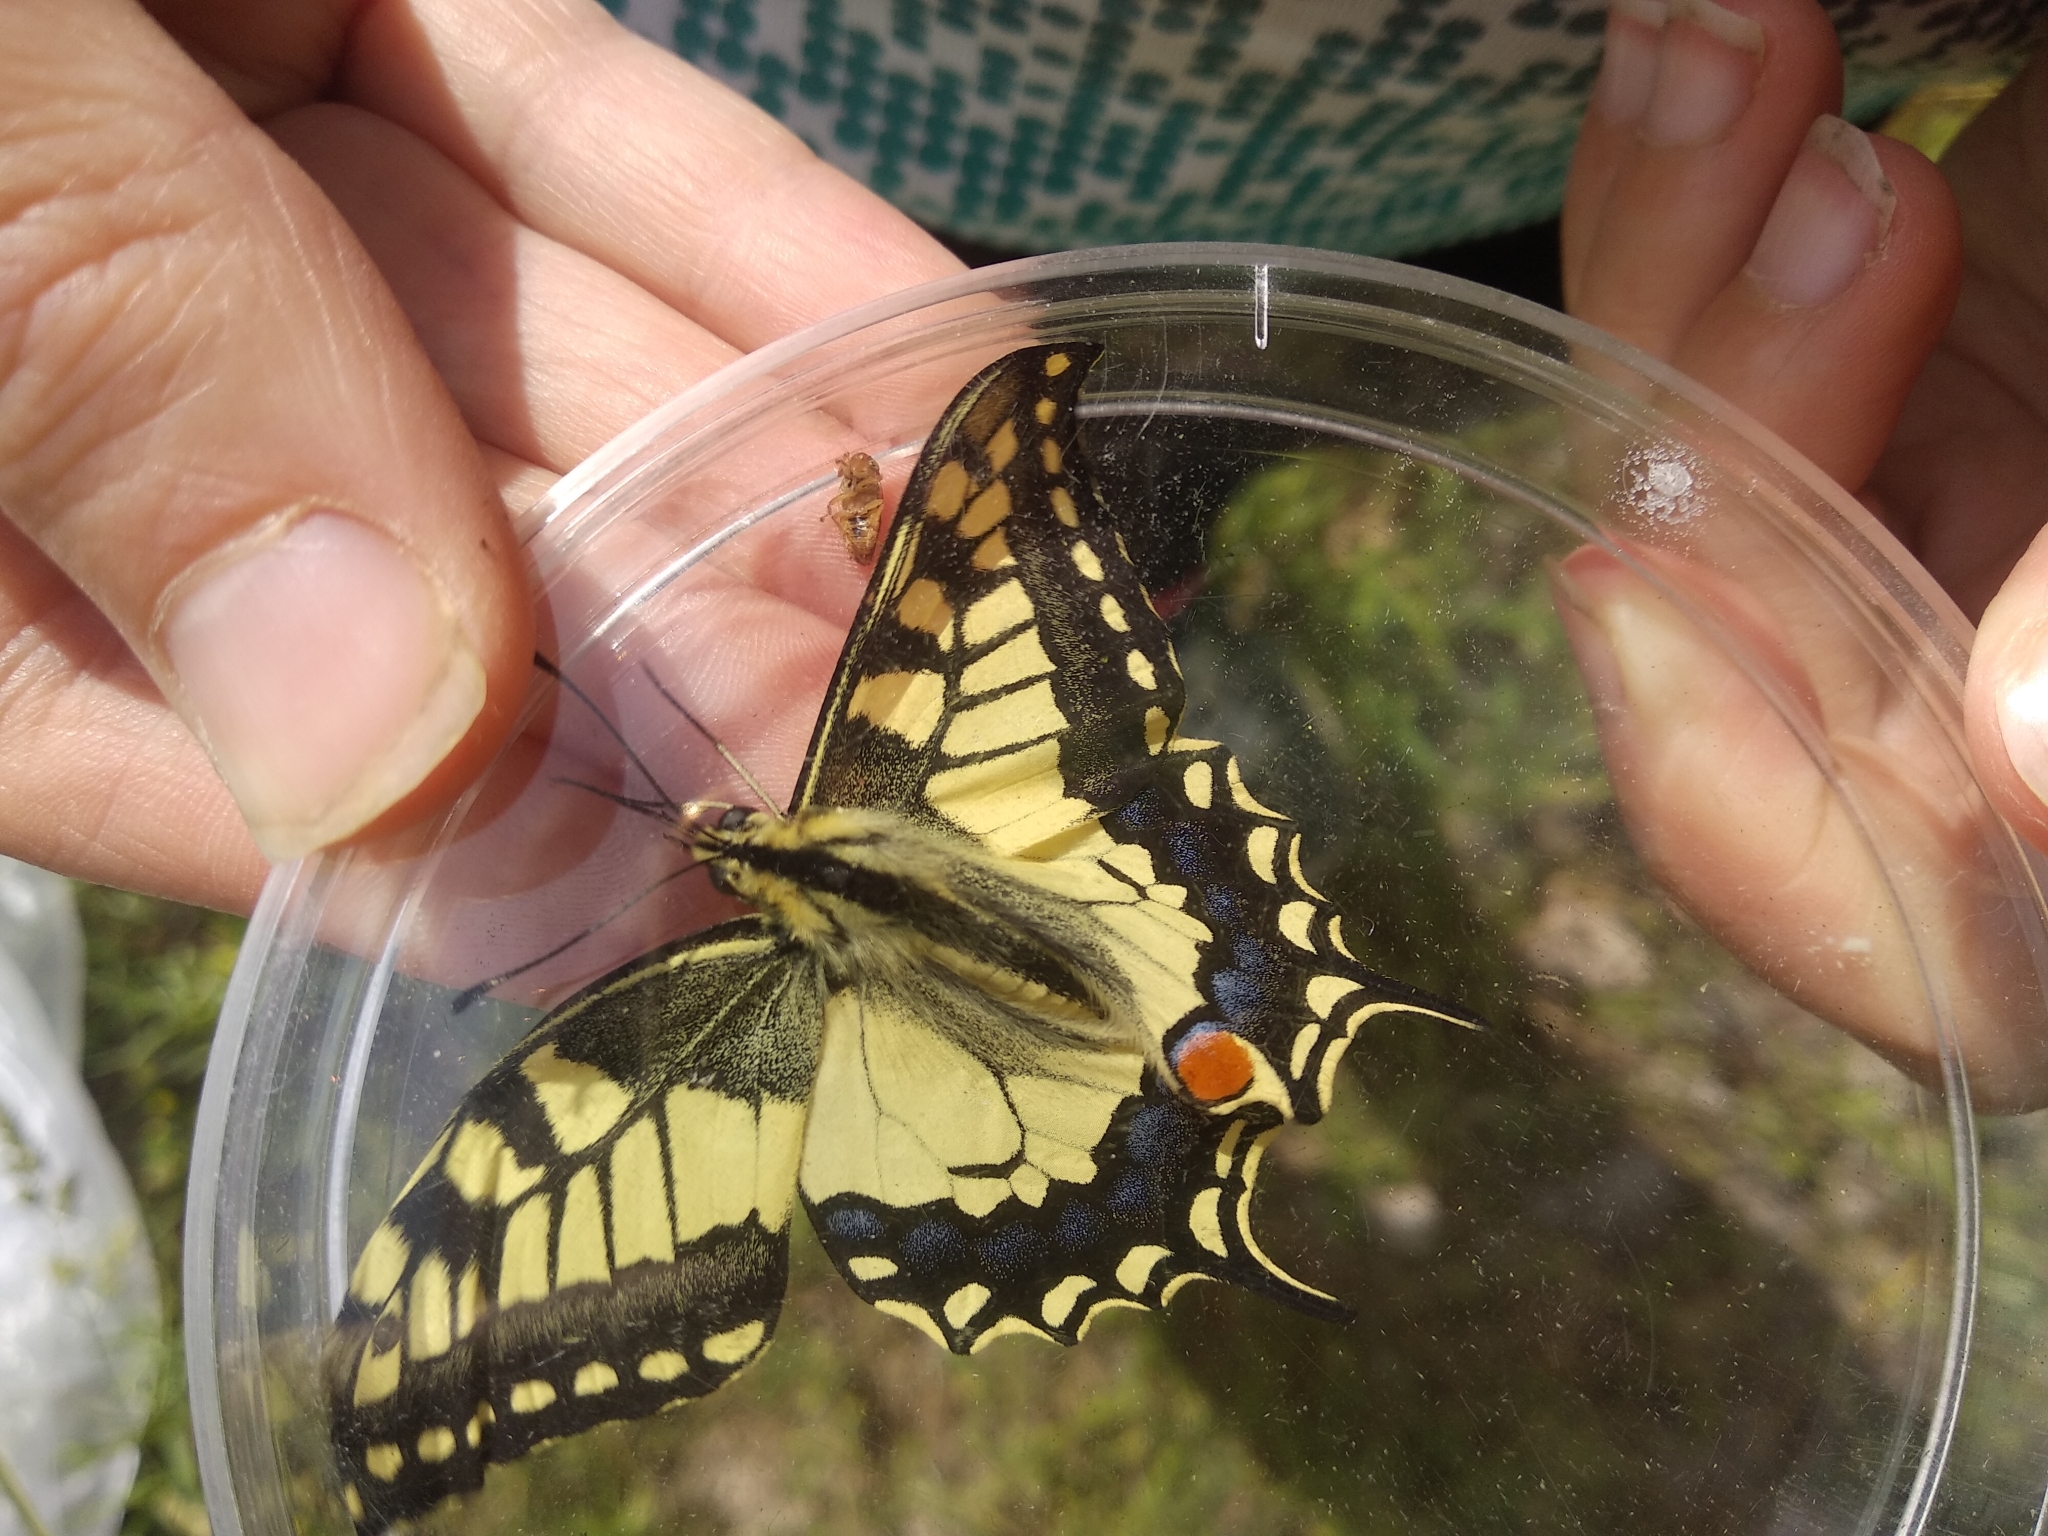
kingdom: Animalia
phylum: Arthropoda
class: Insecta
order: Lepidoptera
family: Papilionidae
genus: Papilio
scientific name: Papilio machaon
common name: Swallowtail
